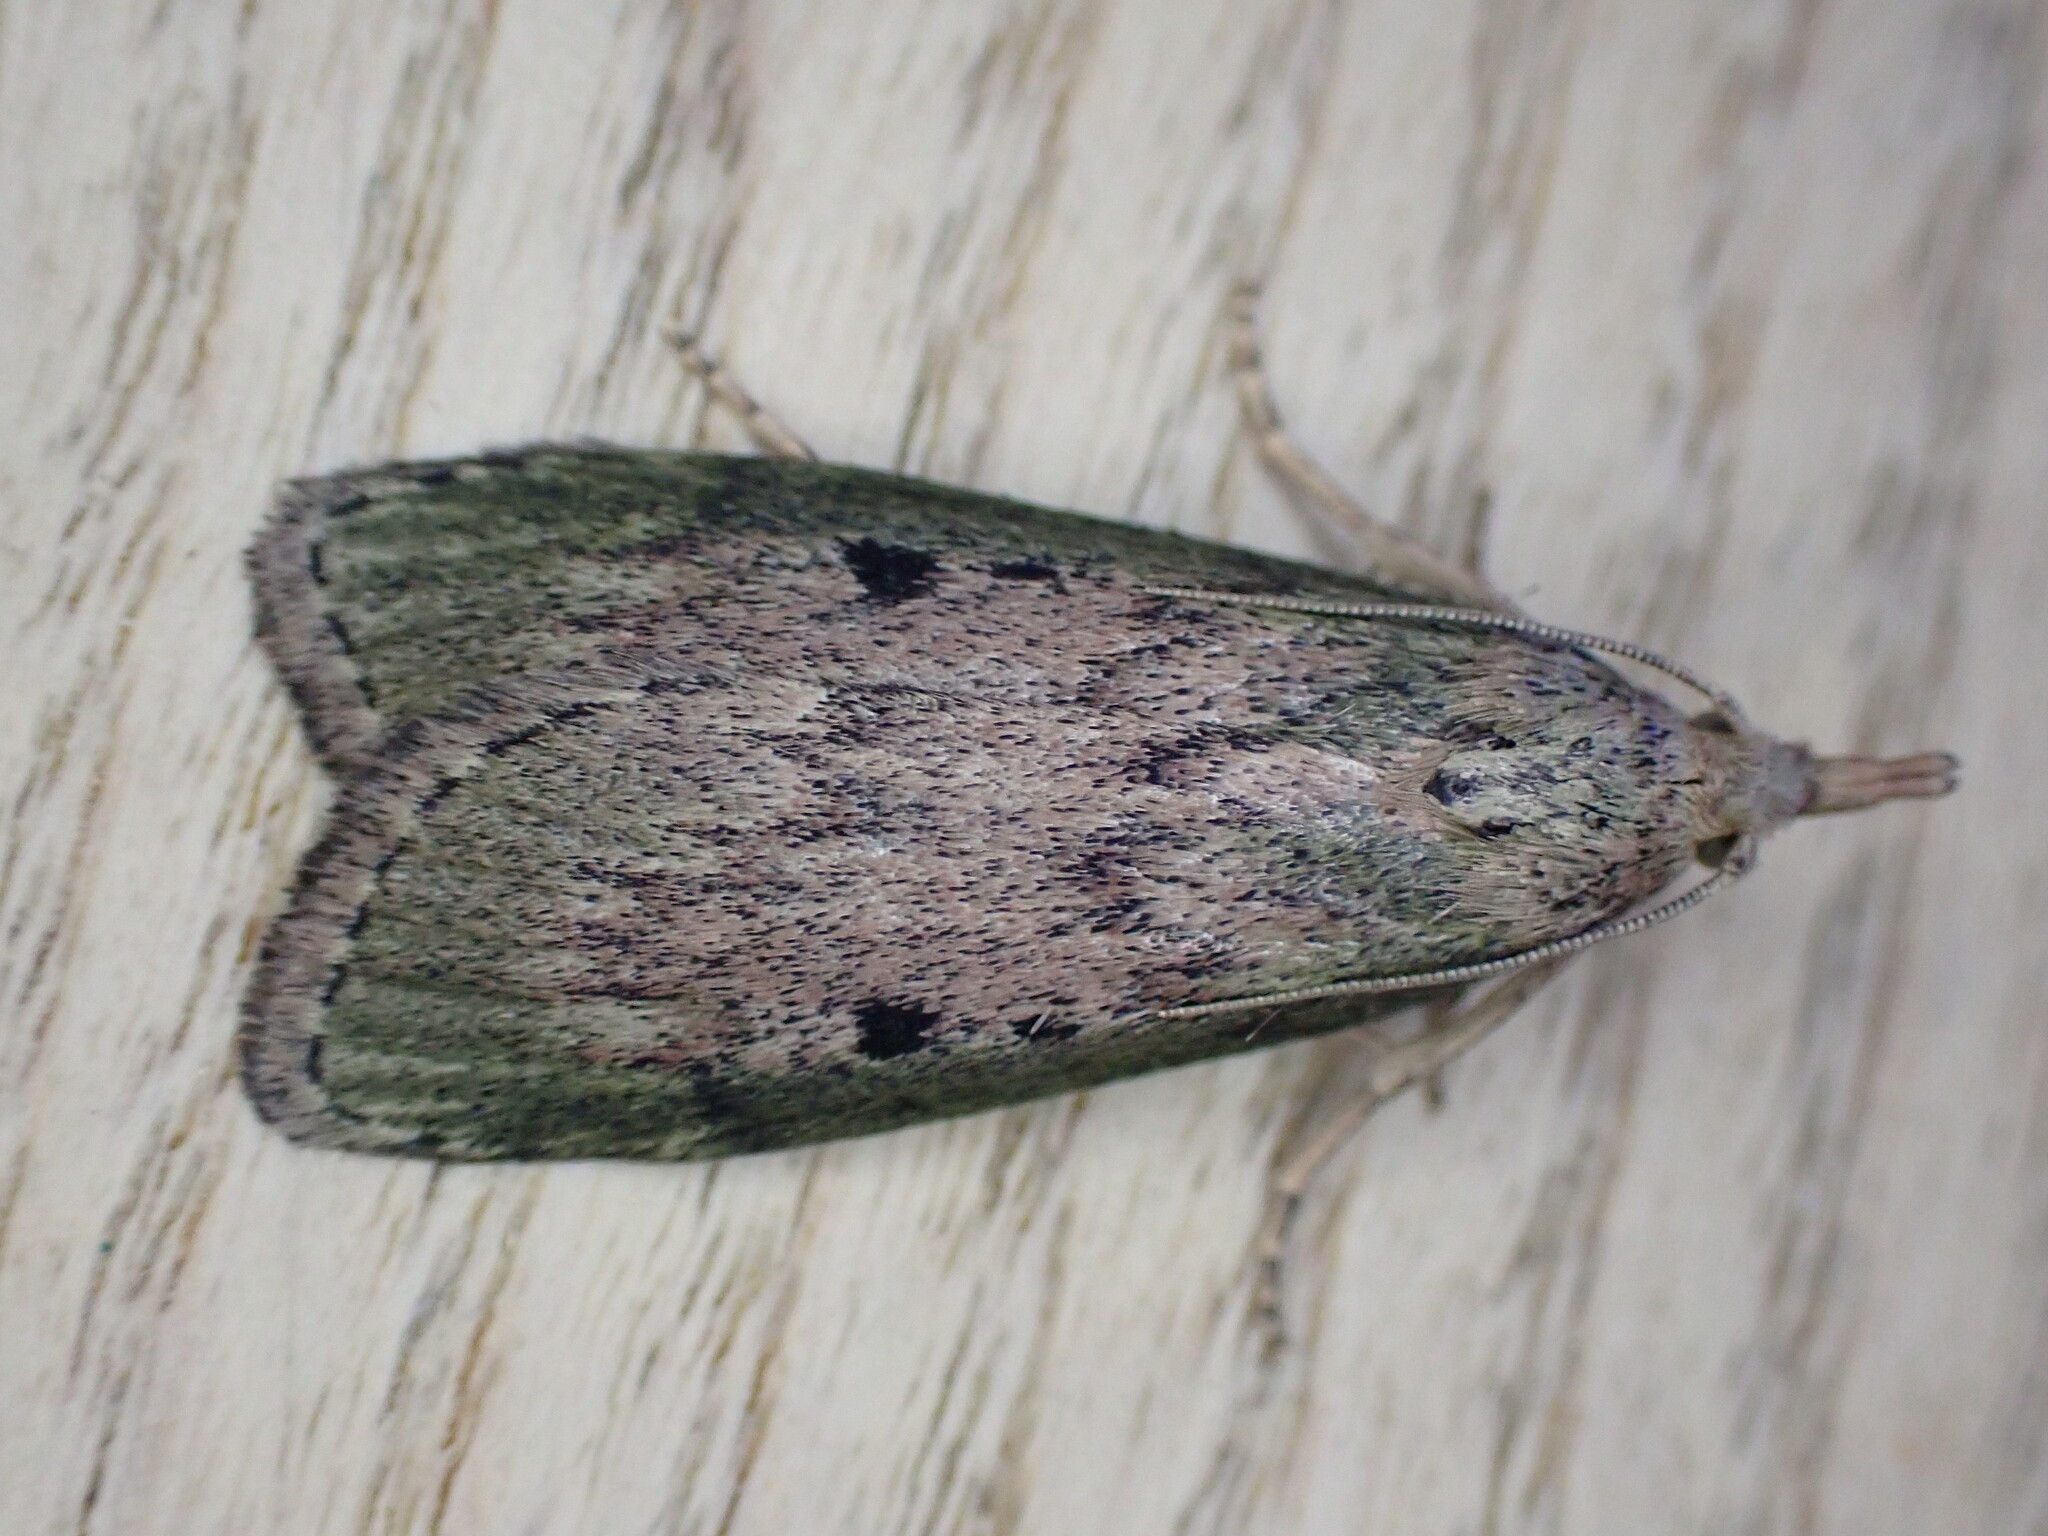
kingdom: Animalia
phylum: Arthropoda
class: Insecta
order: Lepidoptera
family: Pyralidae
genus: Aphomia
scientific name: Aphomia sociella
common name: Bee moth
